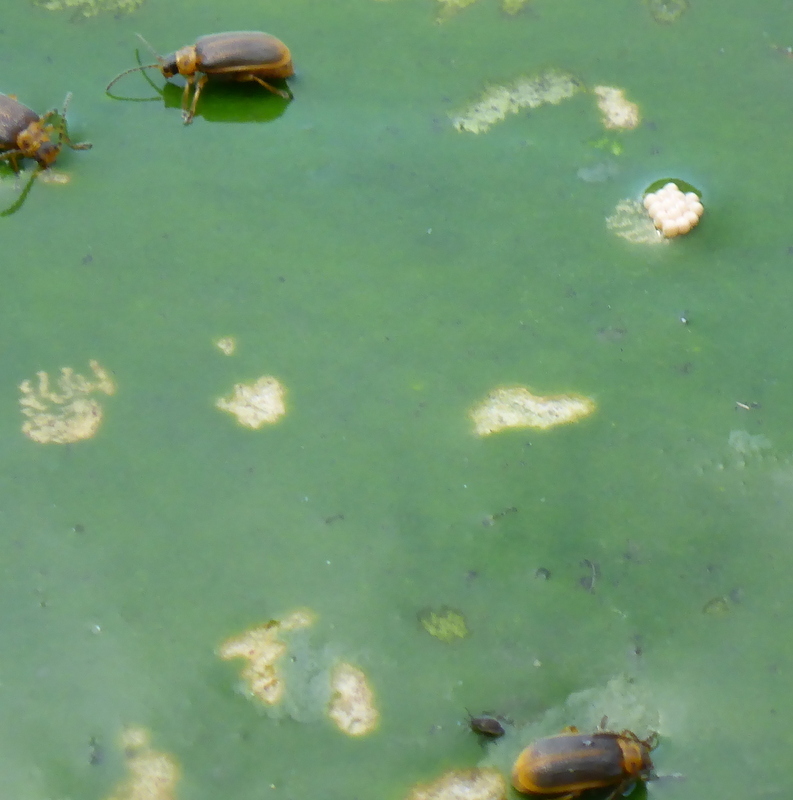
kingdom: Animalia
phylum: Arthropoda
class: Insecta
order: Coleoptera
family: Chrysomelidae
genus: Galerucella
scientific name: Galerucella nymphaeae
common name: Leaf beetle
